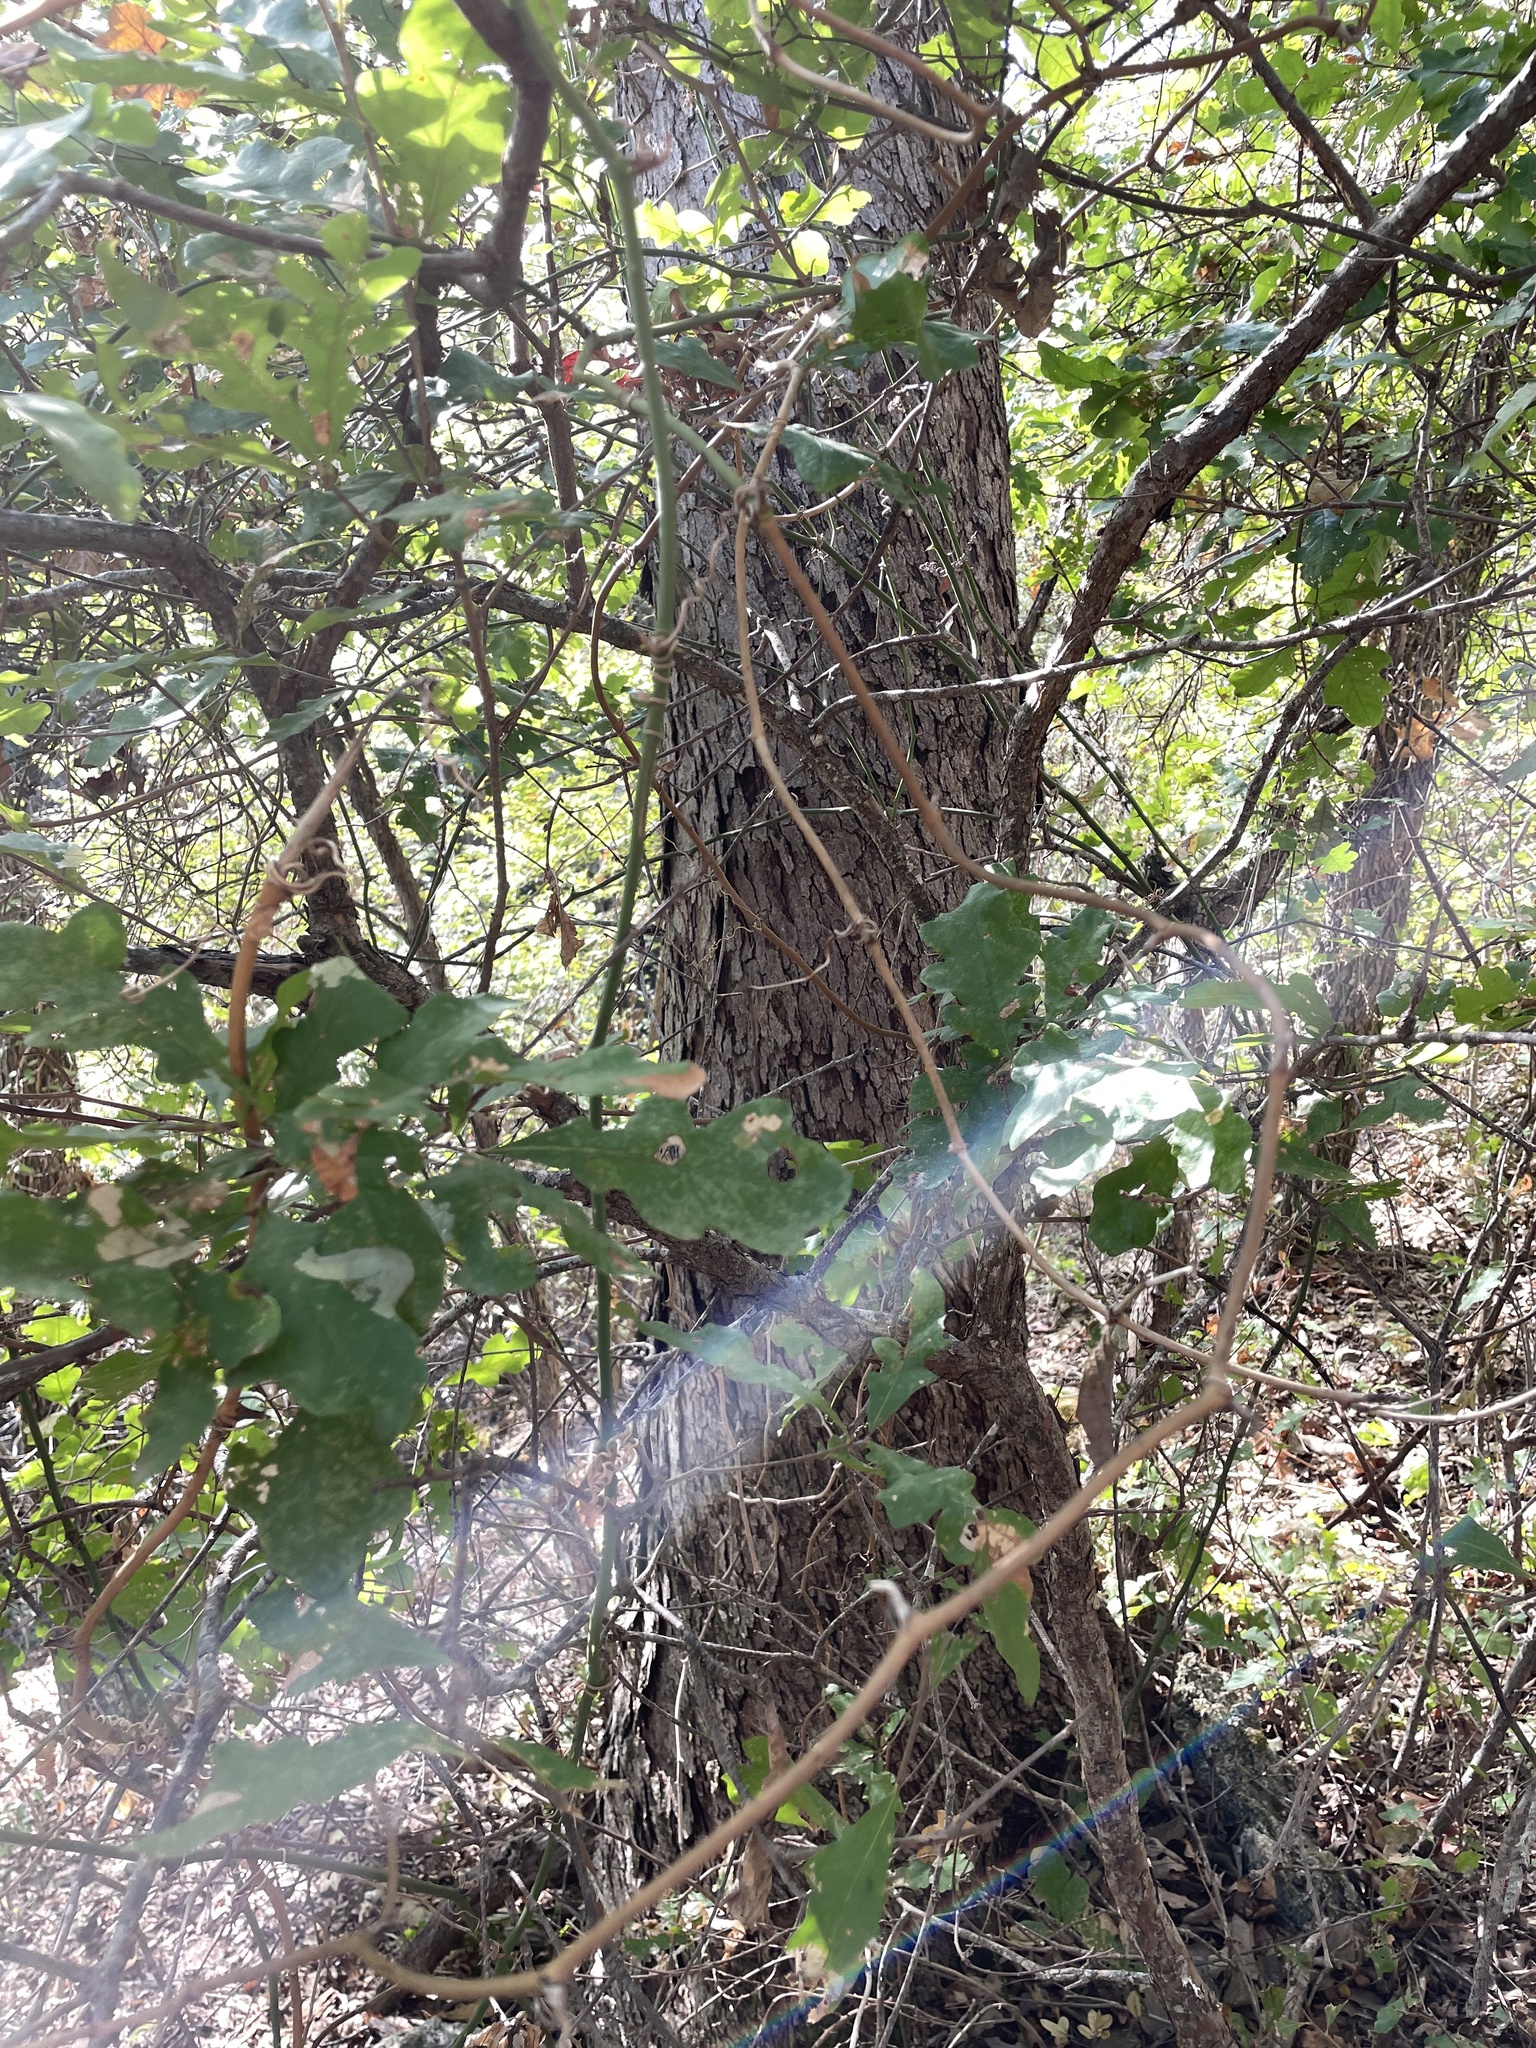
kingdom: Plantae
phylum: Tracheophyta
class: Magnoliopsida
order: Fagales
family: Fagaceae
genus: Quercus
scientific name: Quercus sinuata
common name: Durand oak
